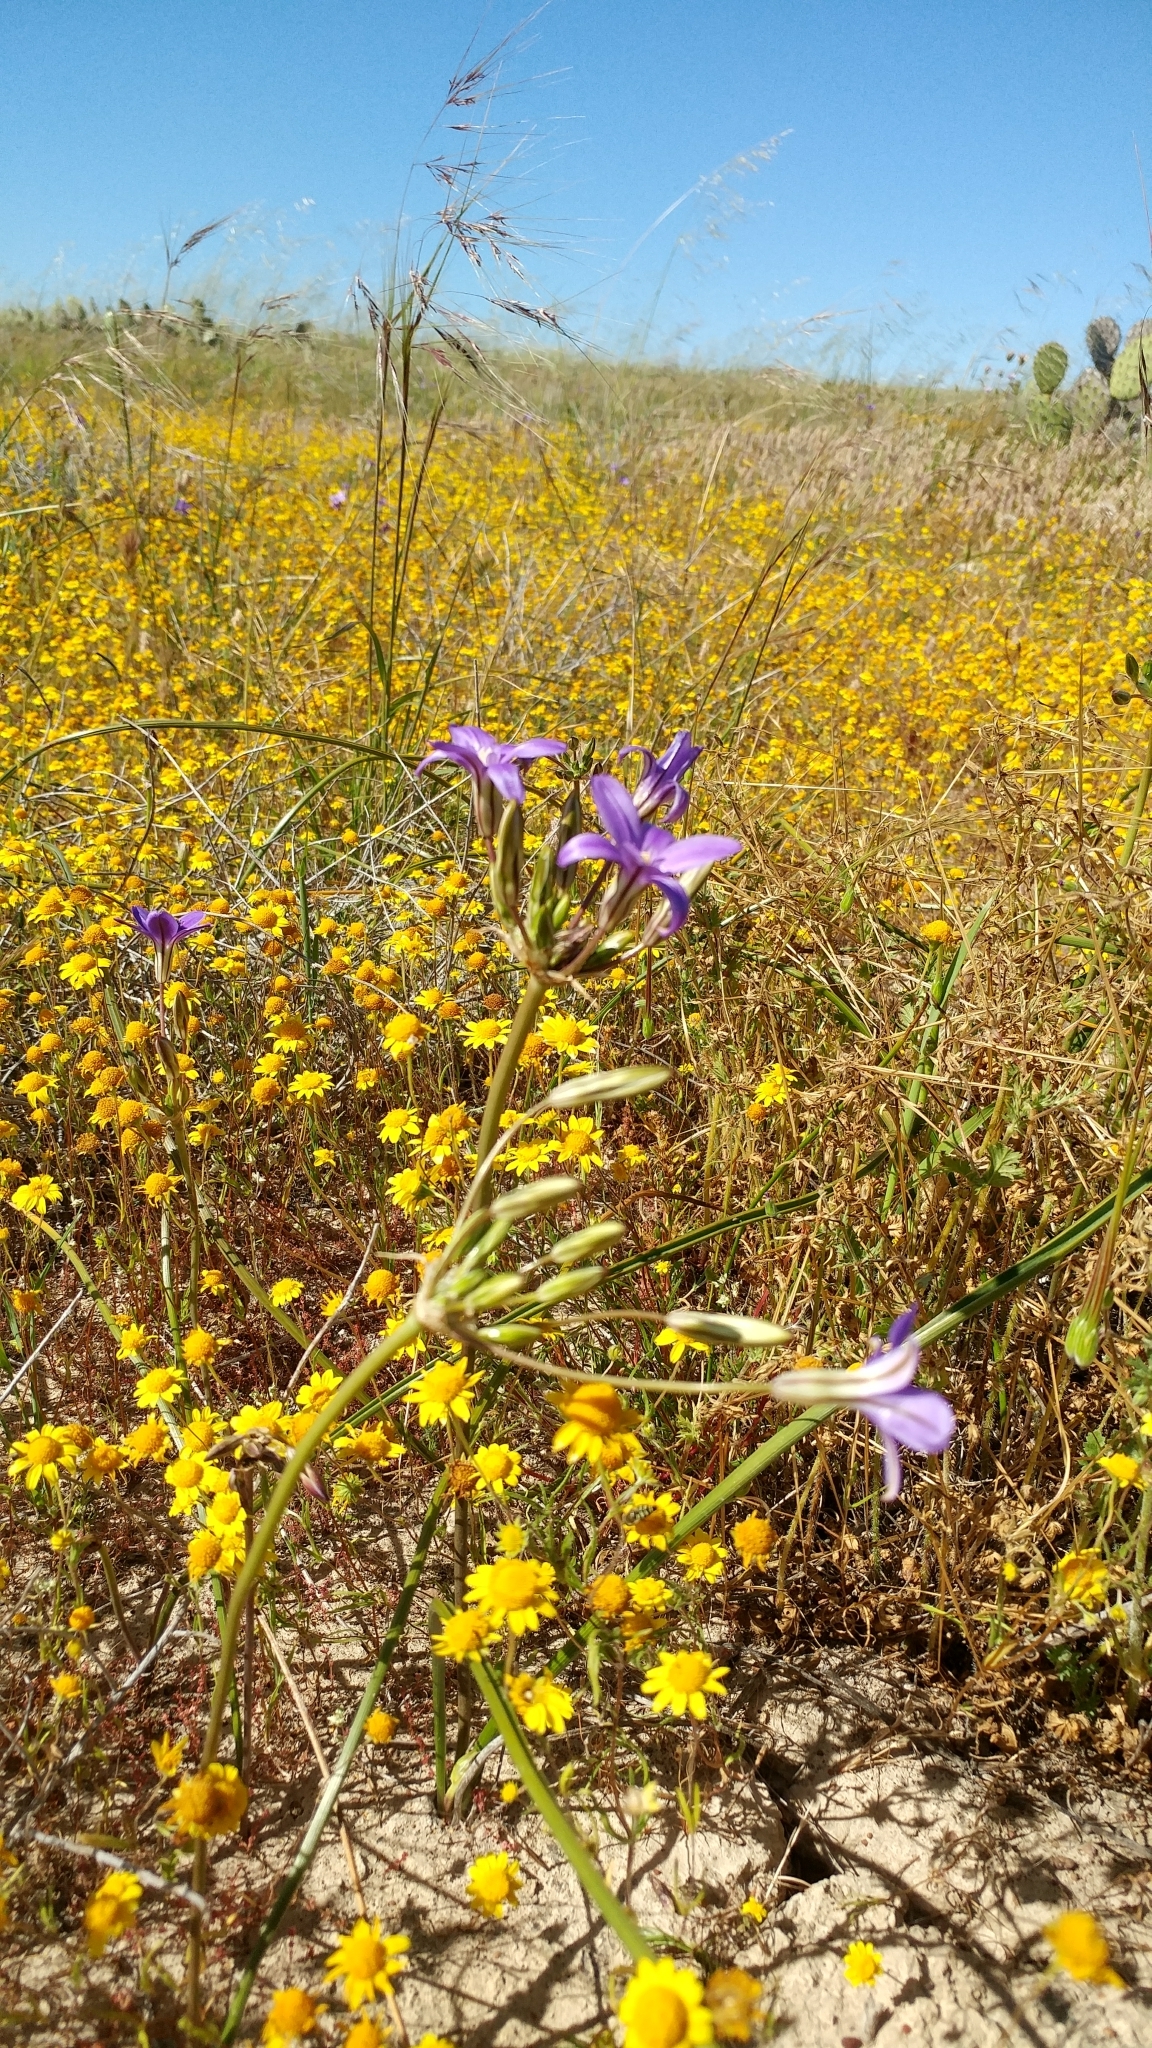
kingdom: Plantae
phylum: Tracheophyta
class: Liliopsida
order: Asparagales
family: Asparagaceae
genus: Brodiaea
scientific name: Brodiaea kinkiensis
